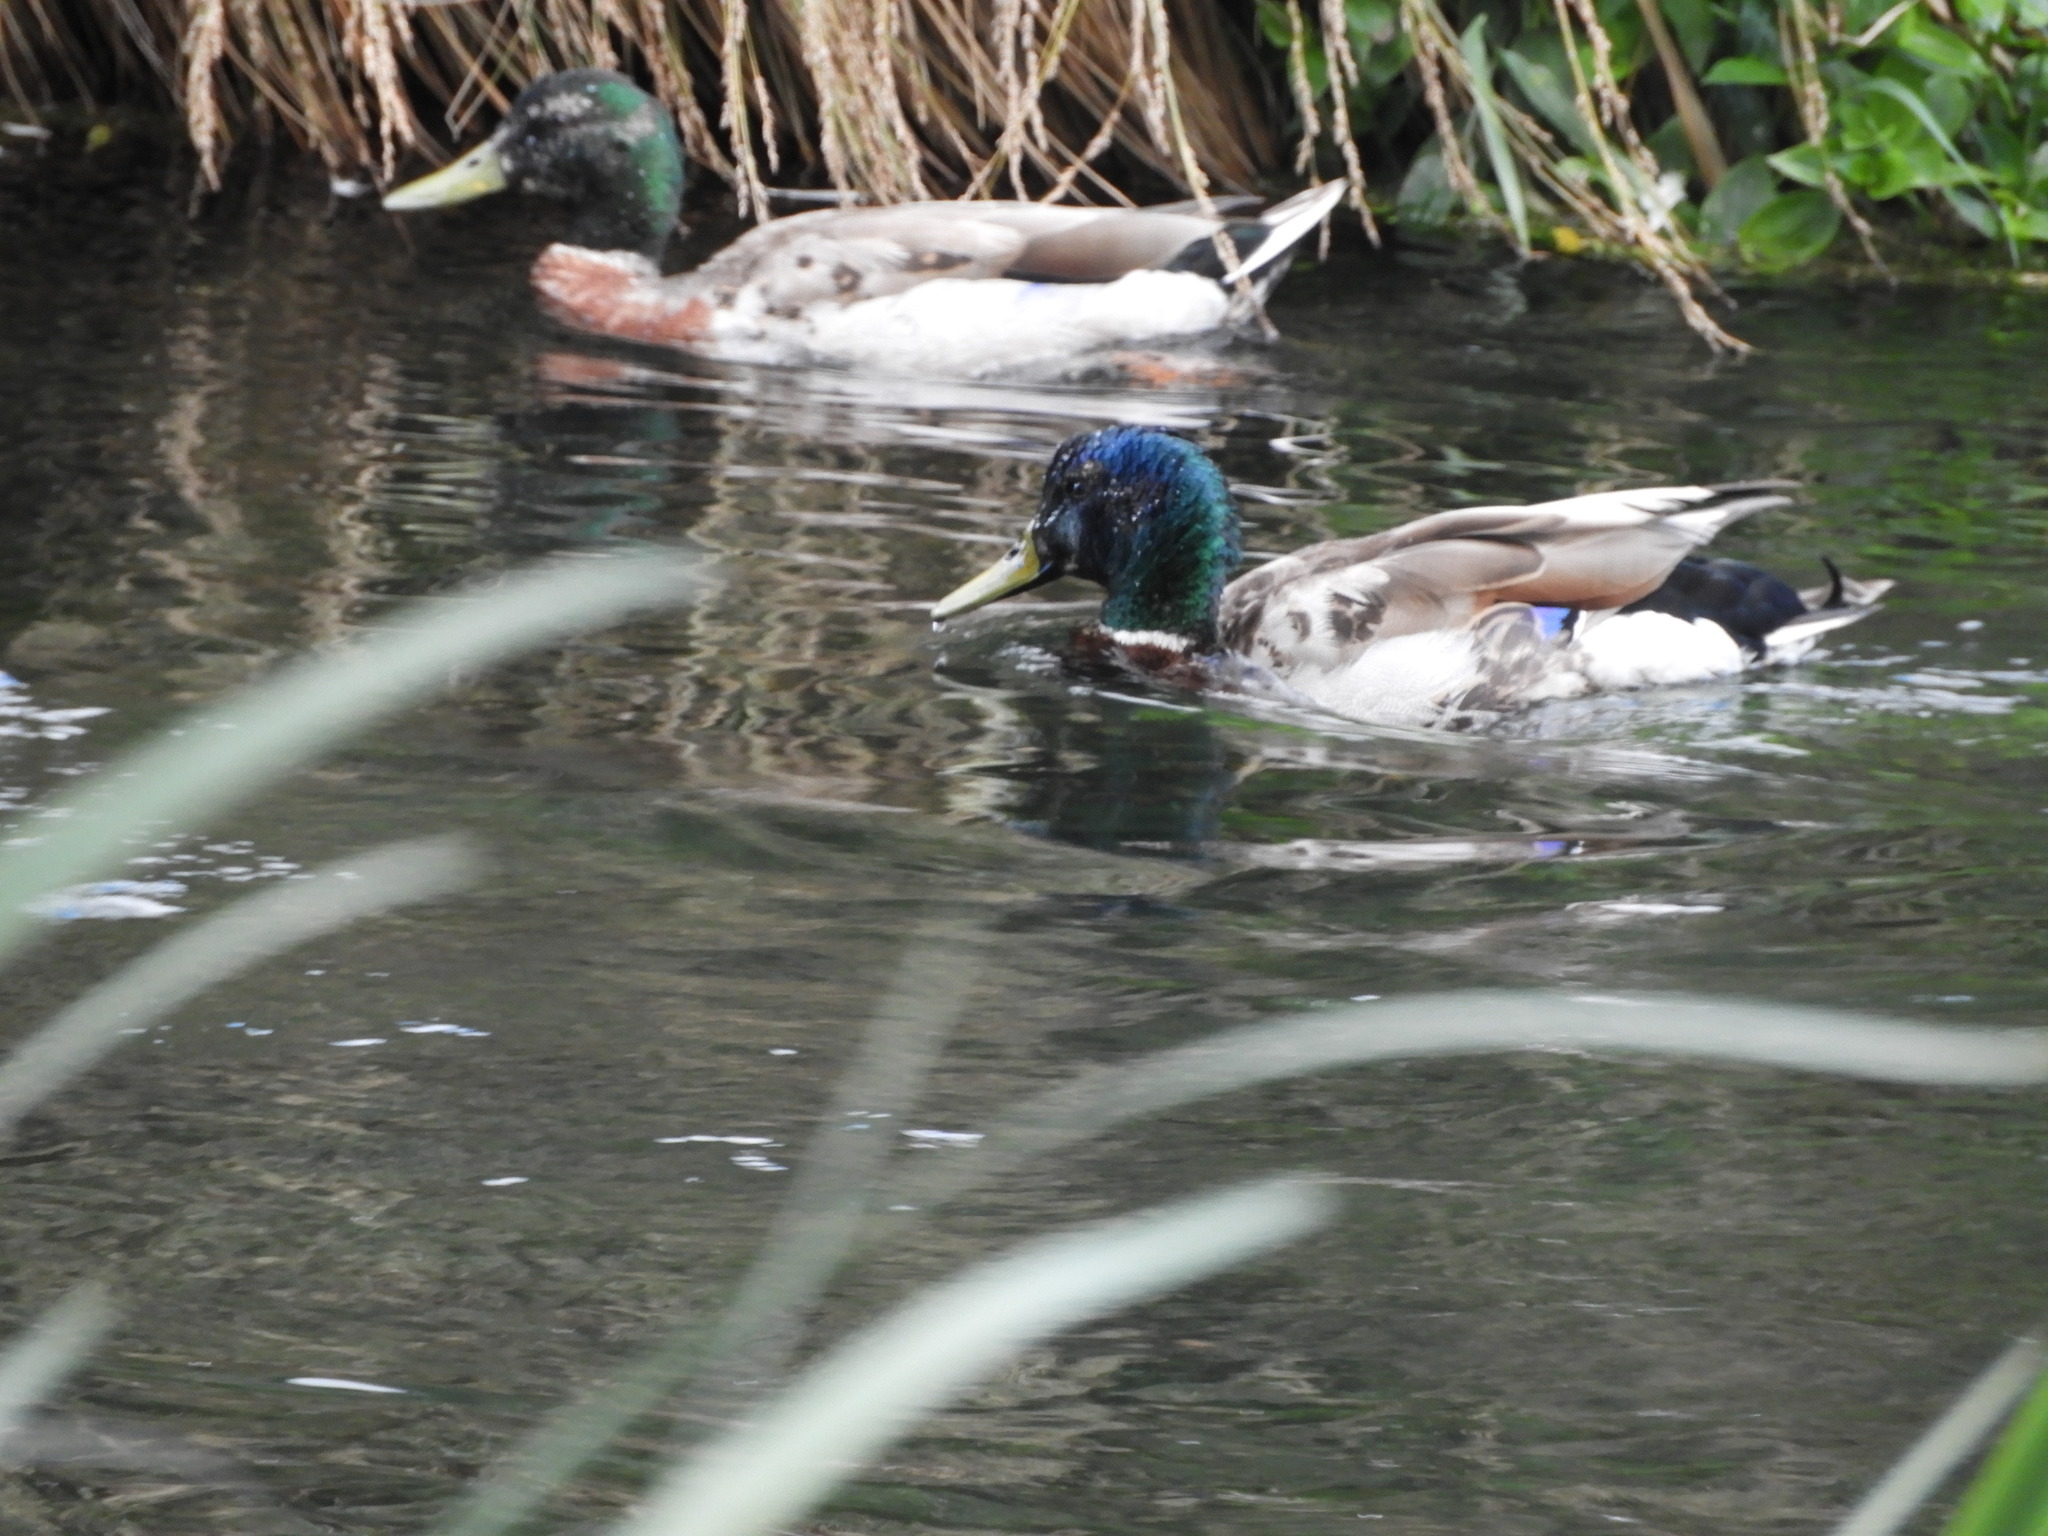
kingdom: Animalia
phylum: Chordata
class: Aves
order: Anseriformes
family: Anatidae
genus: Anas
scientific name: Anas platyrhynchos
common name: Mallard
